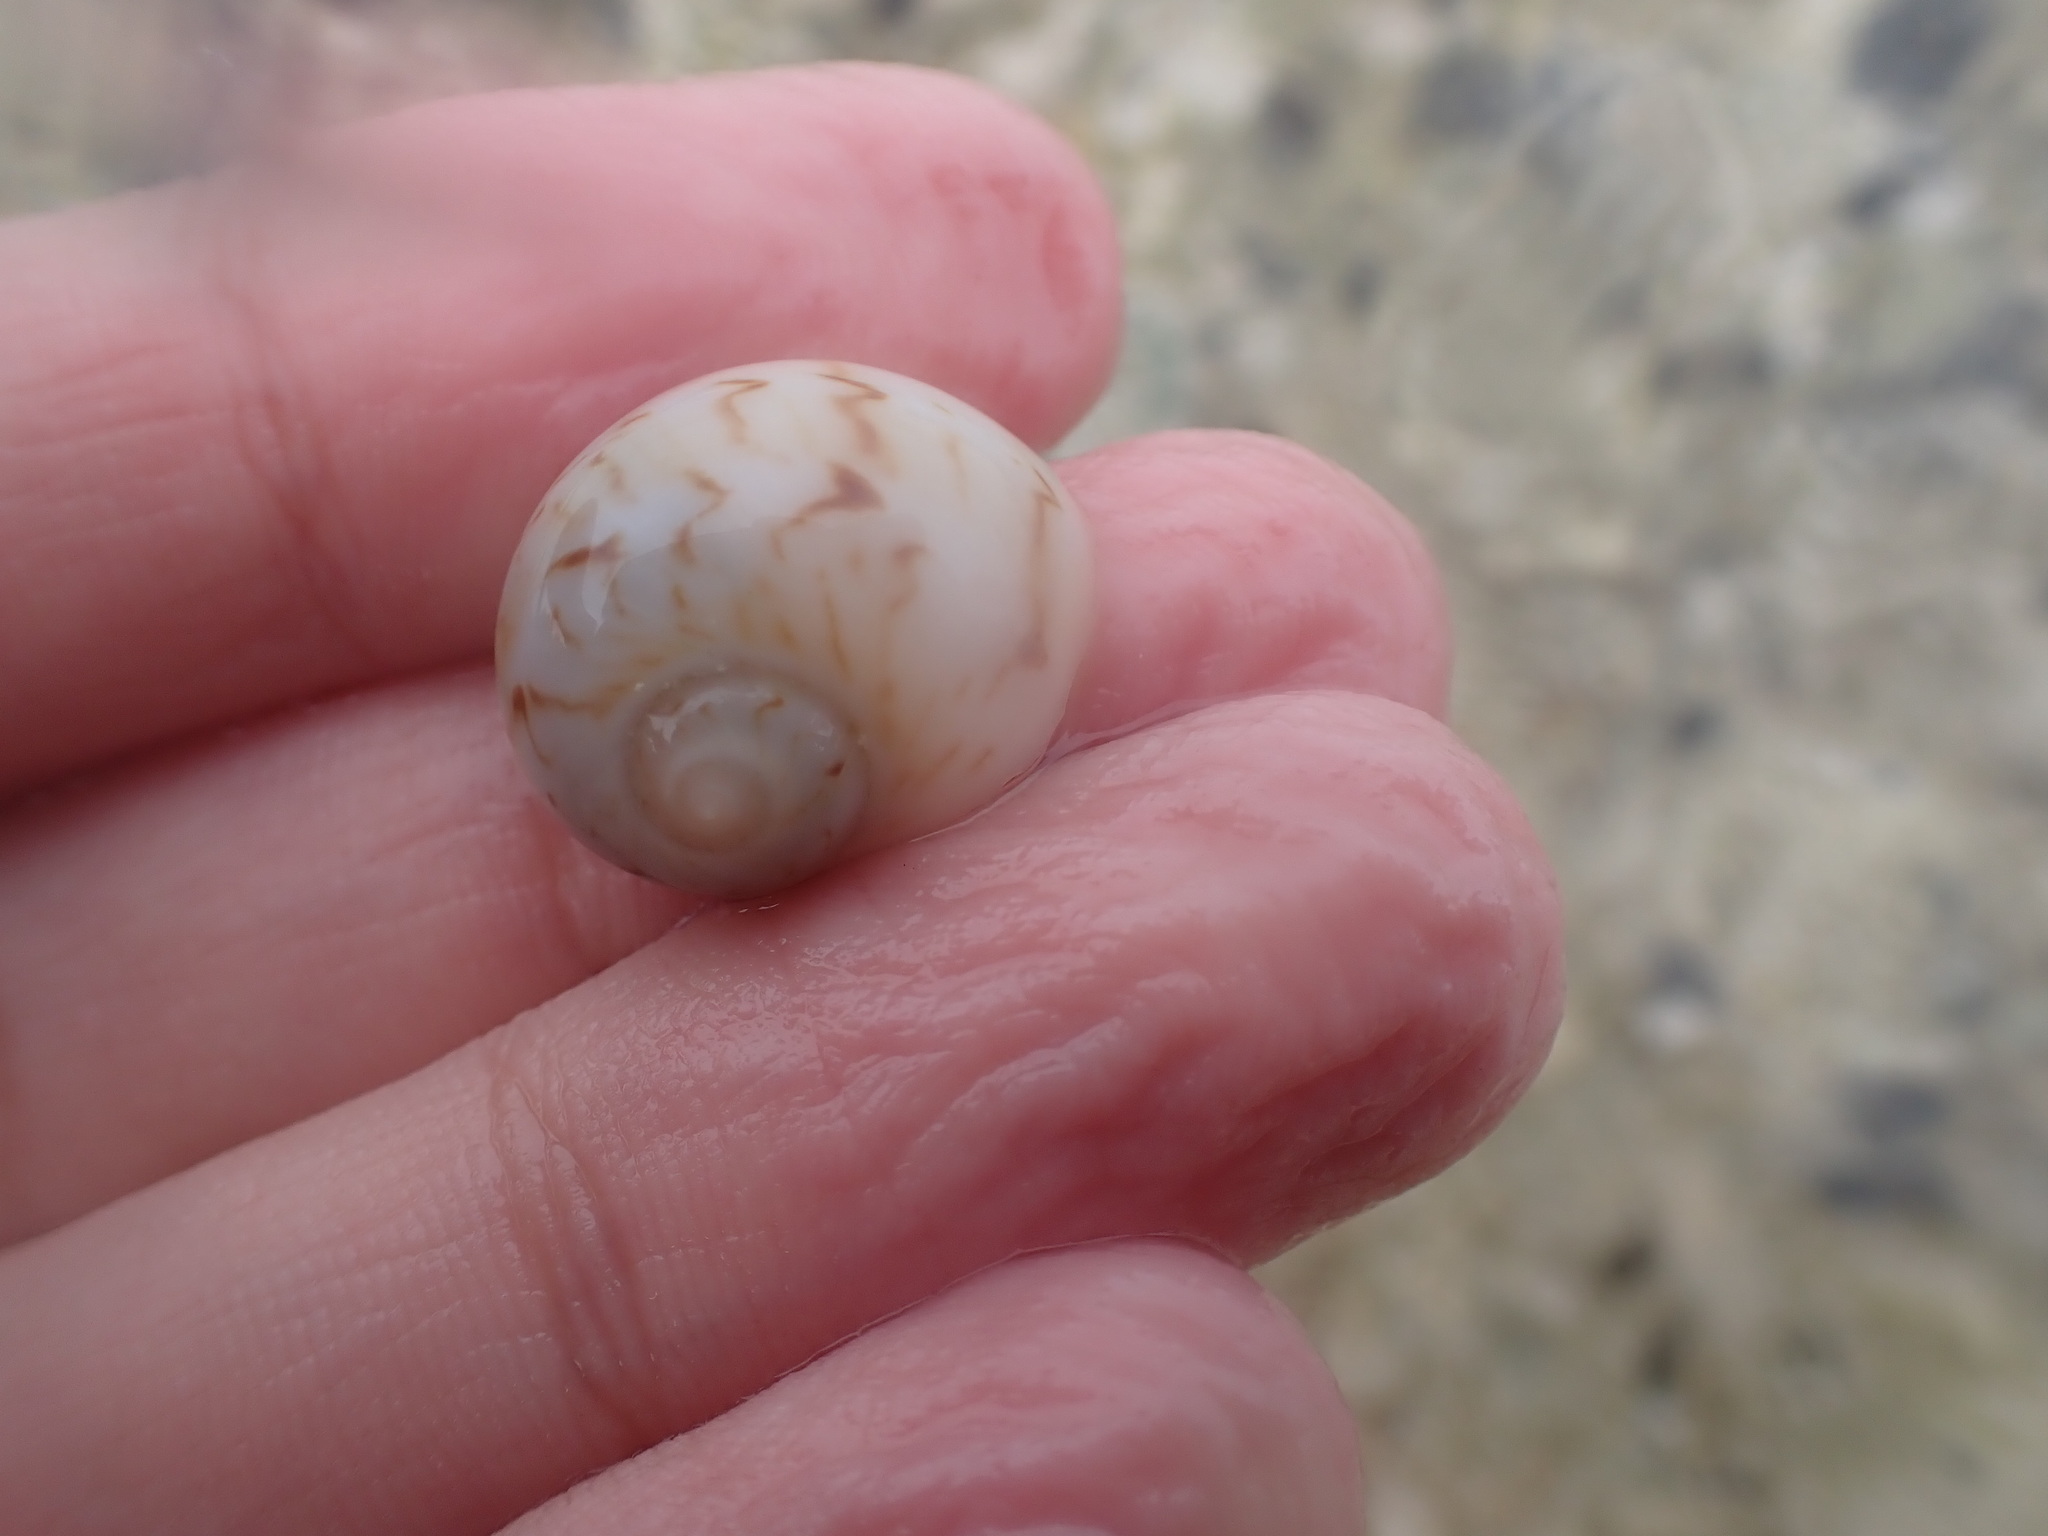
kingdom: Animalia
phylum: Mollusca
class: Gastropoda
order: Littorinimorpha
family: Naticidae
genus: Naticarius
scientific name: Naticarius canrena
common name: Colorful moonsnail
